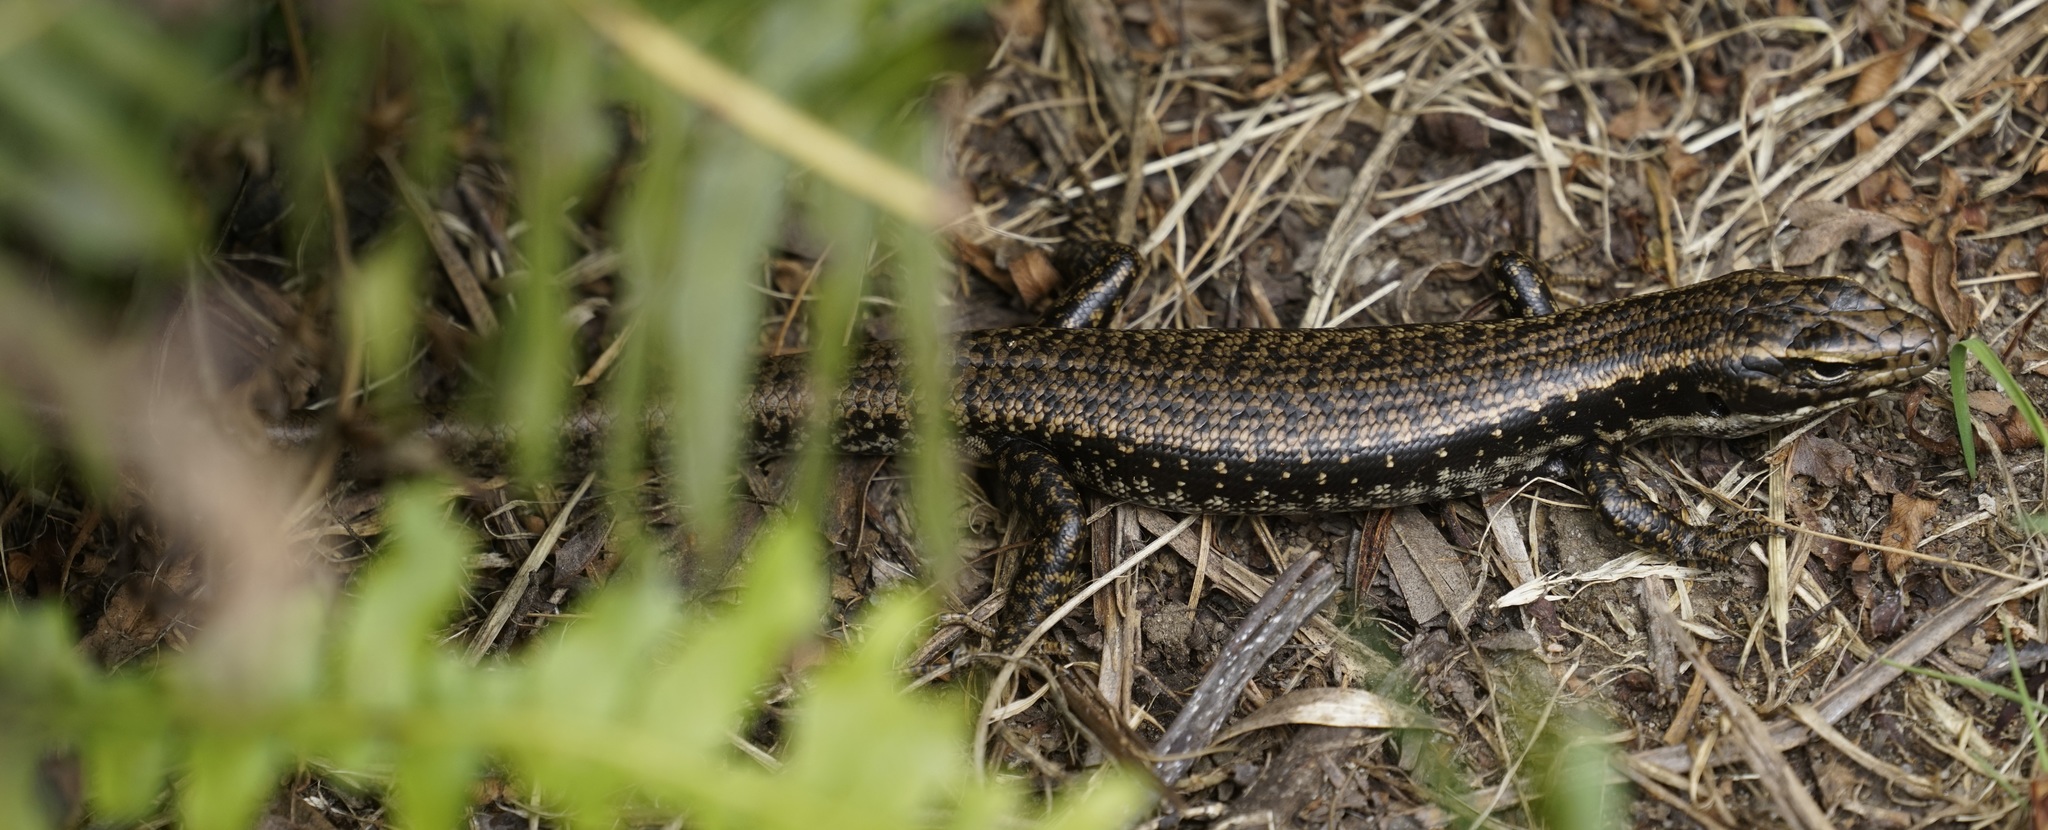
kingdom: Animalia
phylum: Chordata
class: Squamata
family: Scincidae
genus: Eulamprus
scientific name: Eulamprus heatwolei
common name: Warm-temperate water-skink
